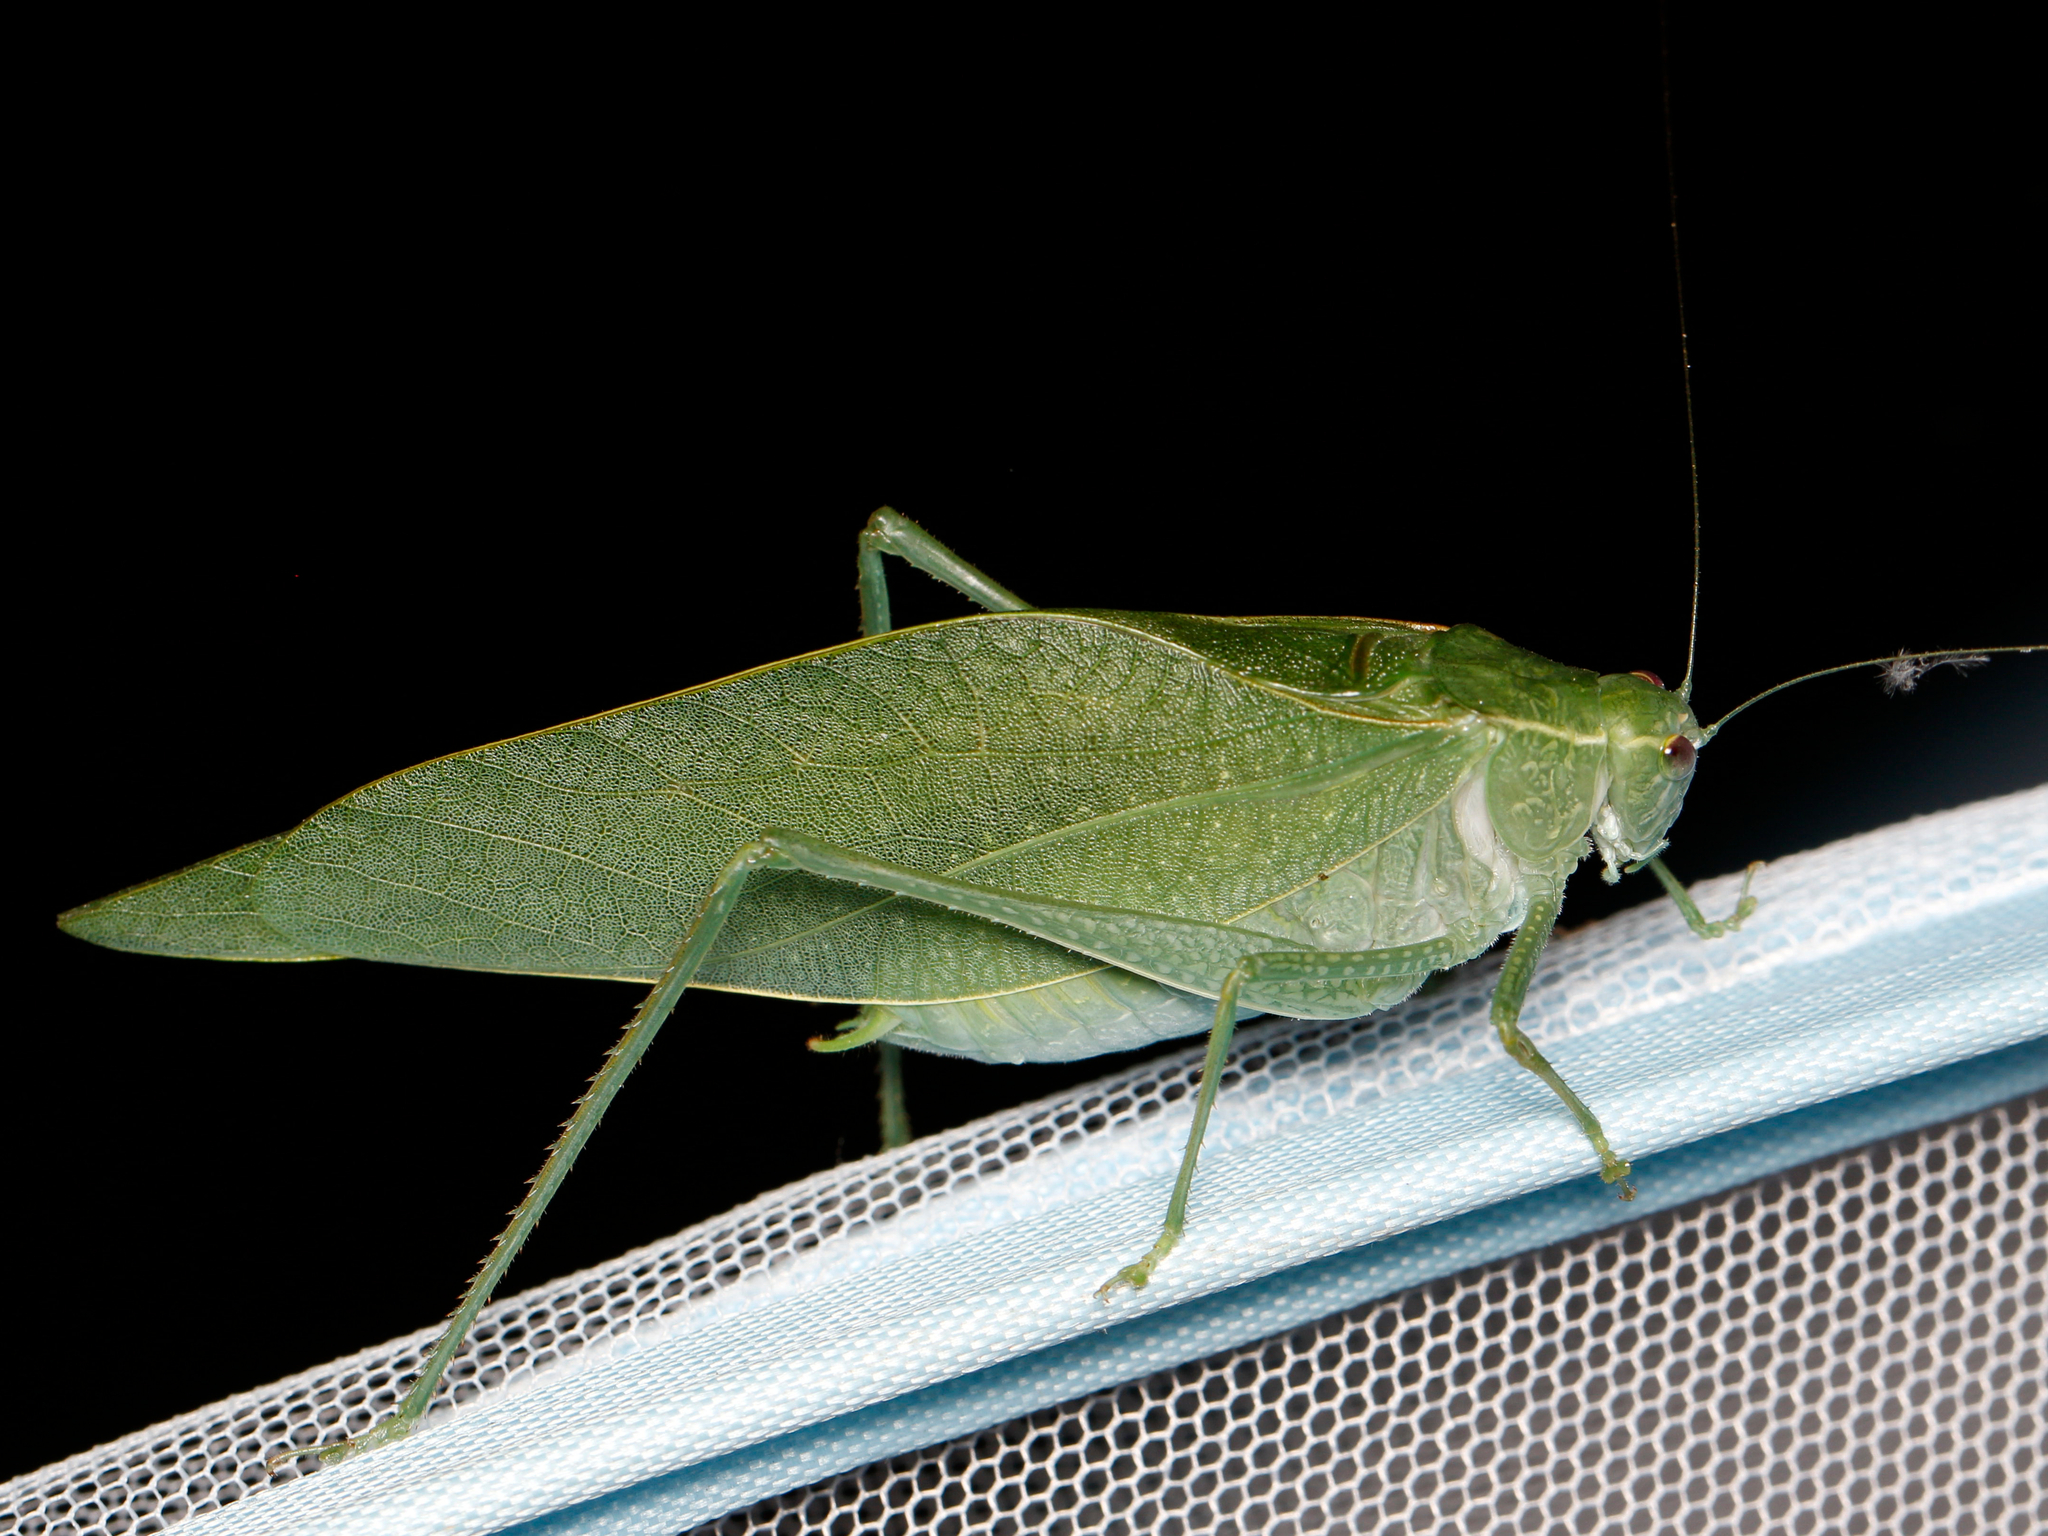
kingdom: Animalia
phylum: Arthropoda
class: Insecta
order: Orthoptera
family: Tettigoniidae
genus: Microcentrum
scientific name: Microcentrum rhombifolium
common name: Broad-winged katydid
